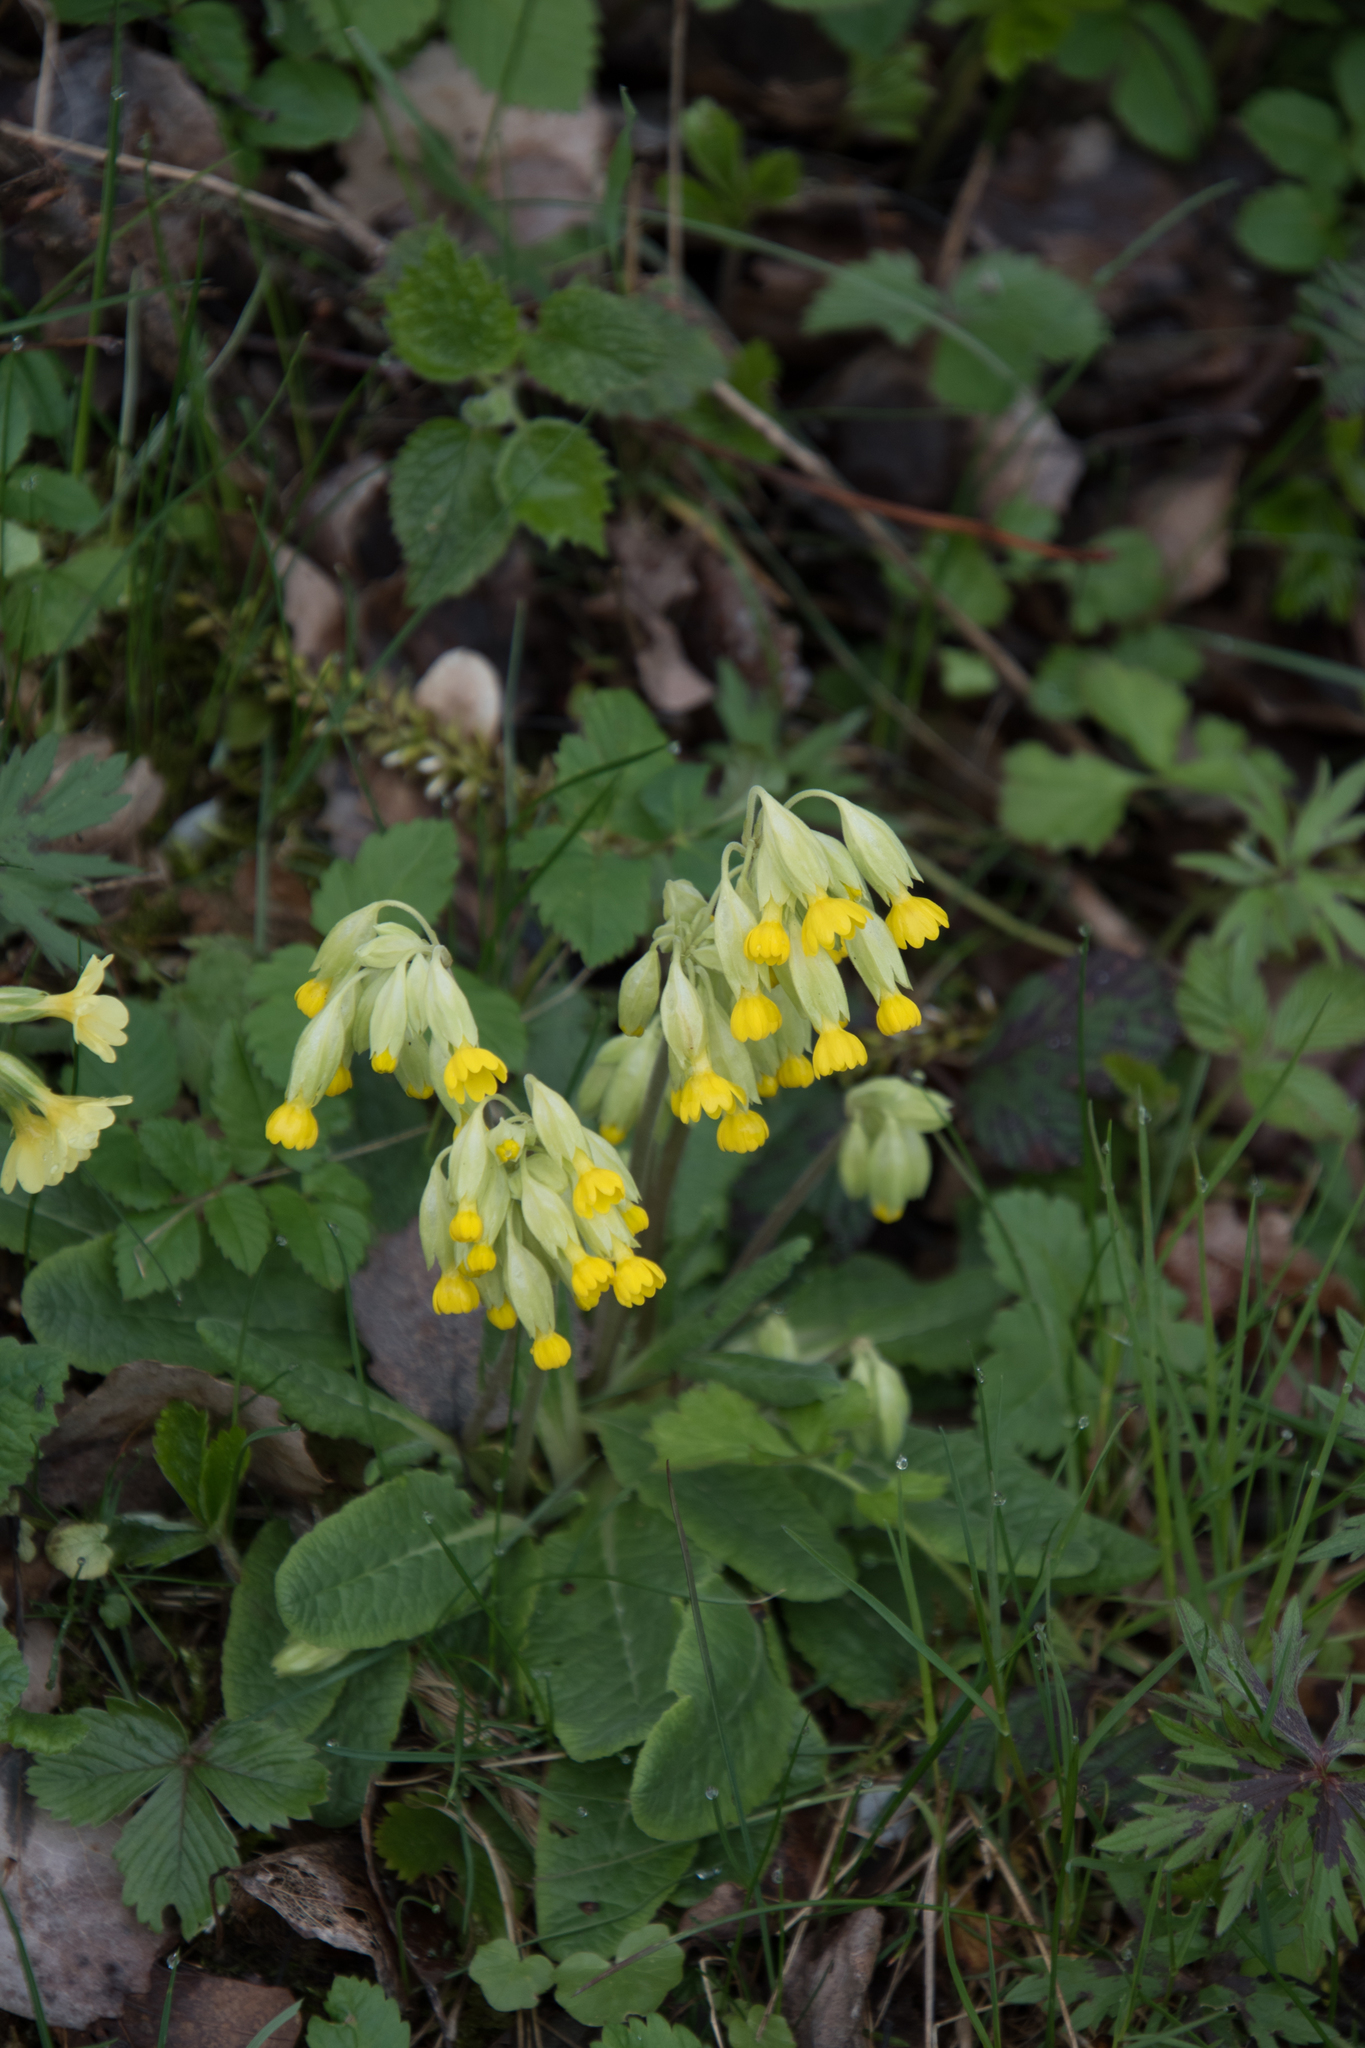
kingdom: Plantae
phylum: Tracheophyta
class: Magnoliopsida
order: Ericales
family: Primulaceae
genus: Primula
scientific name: Primula veris
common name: Cowslip
